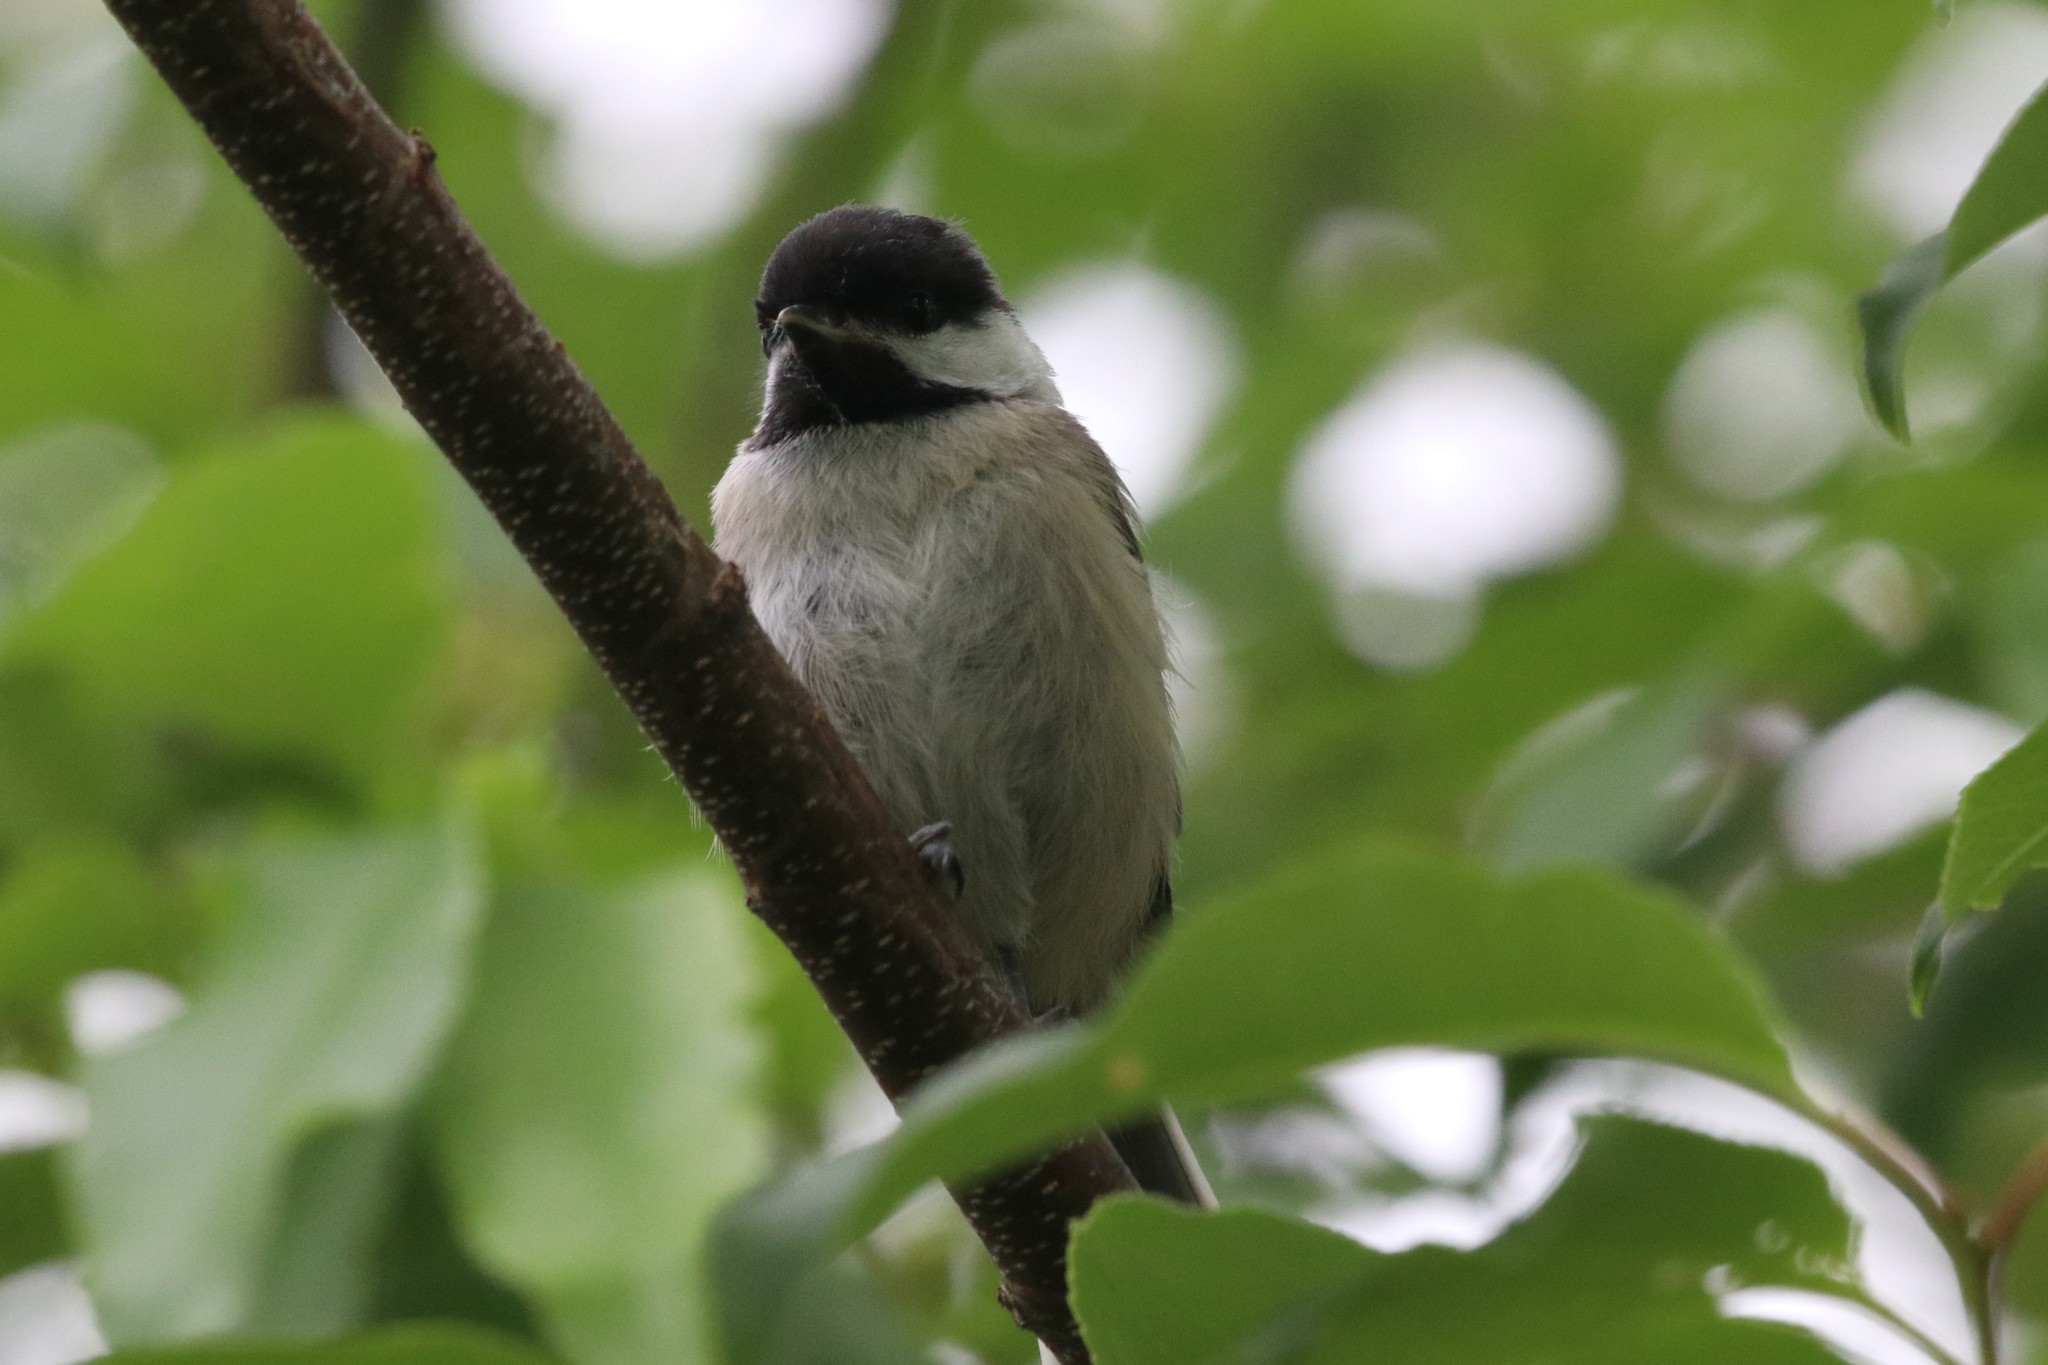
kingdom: Animalia
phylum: Chordata
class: Aves
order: Passeriformes
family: Paridae
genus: Poecile
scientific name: Poecile atricapillus
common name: Black-capped chickadee
